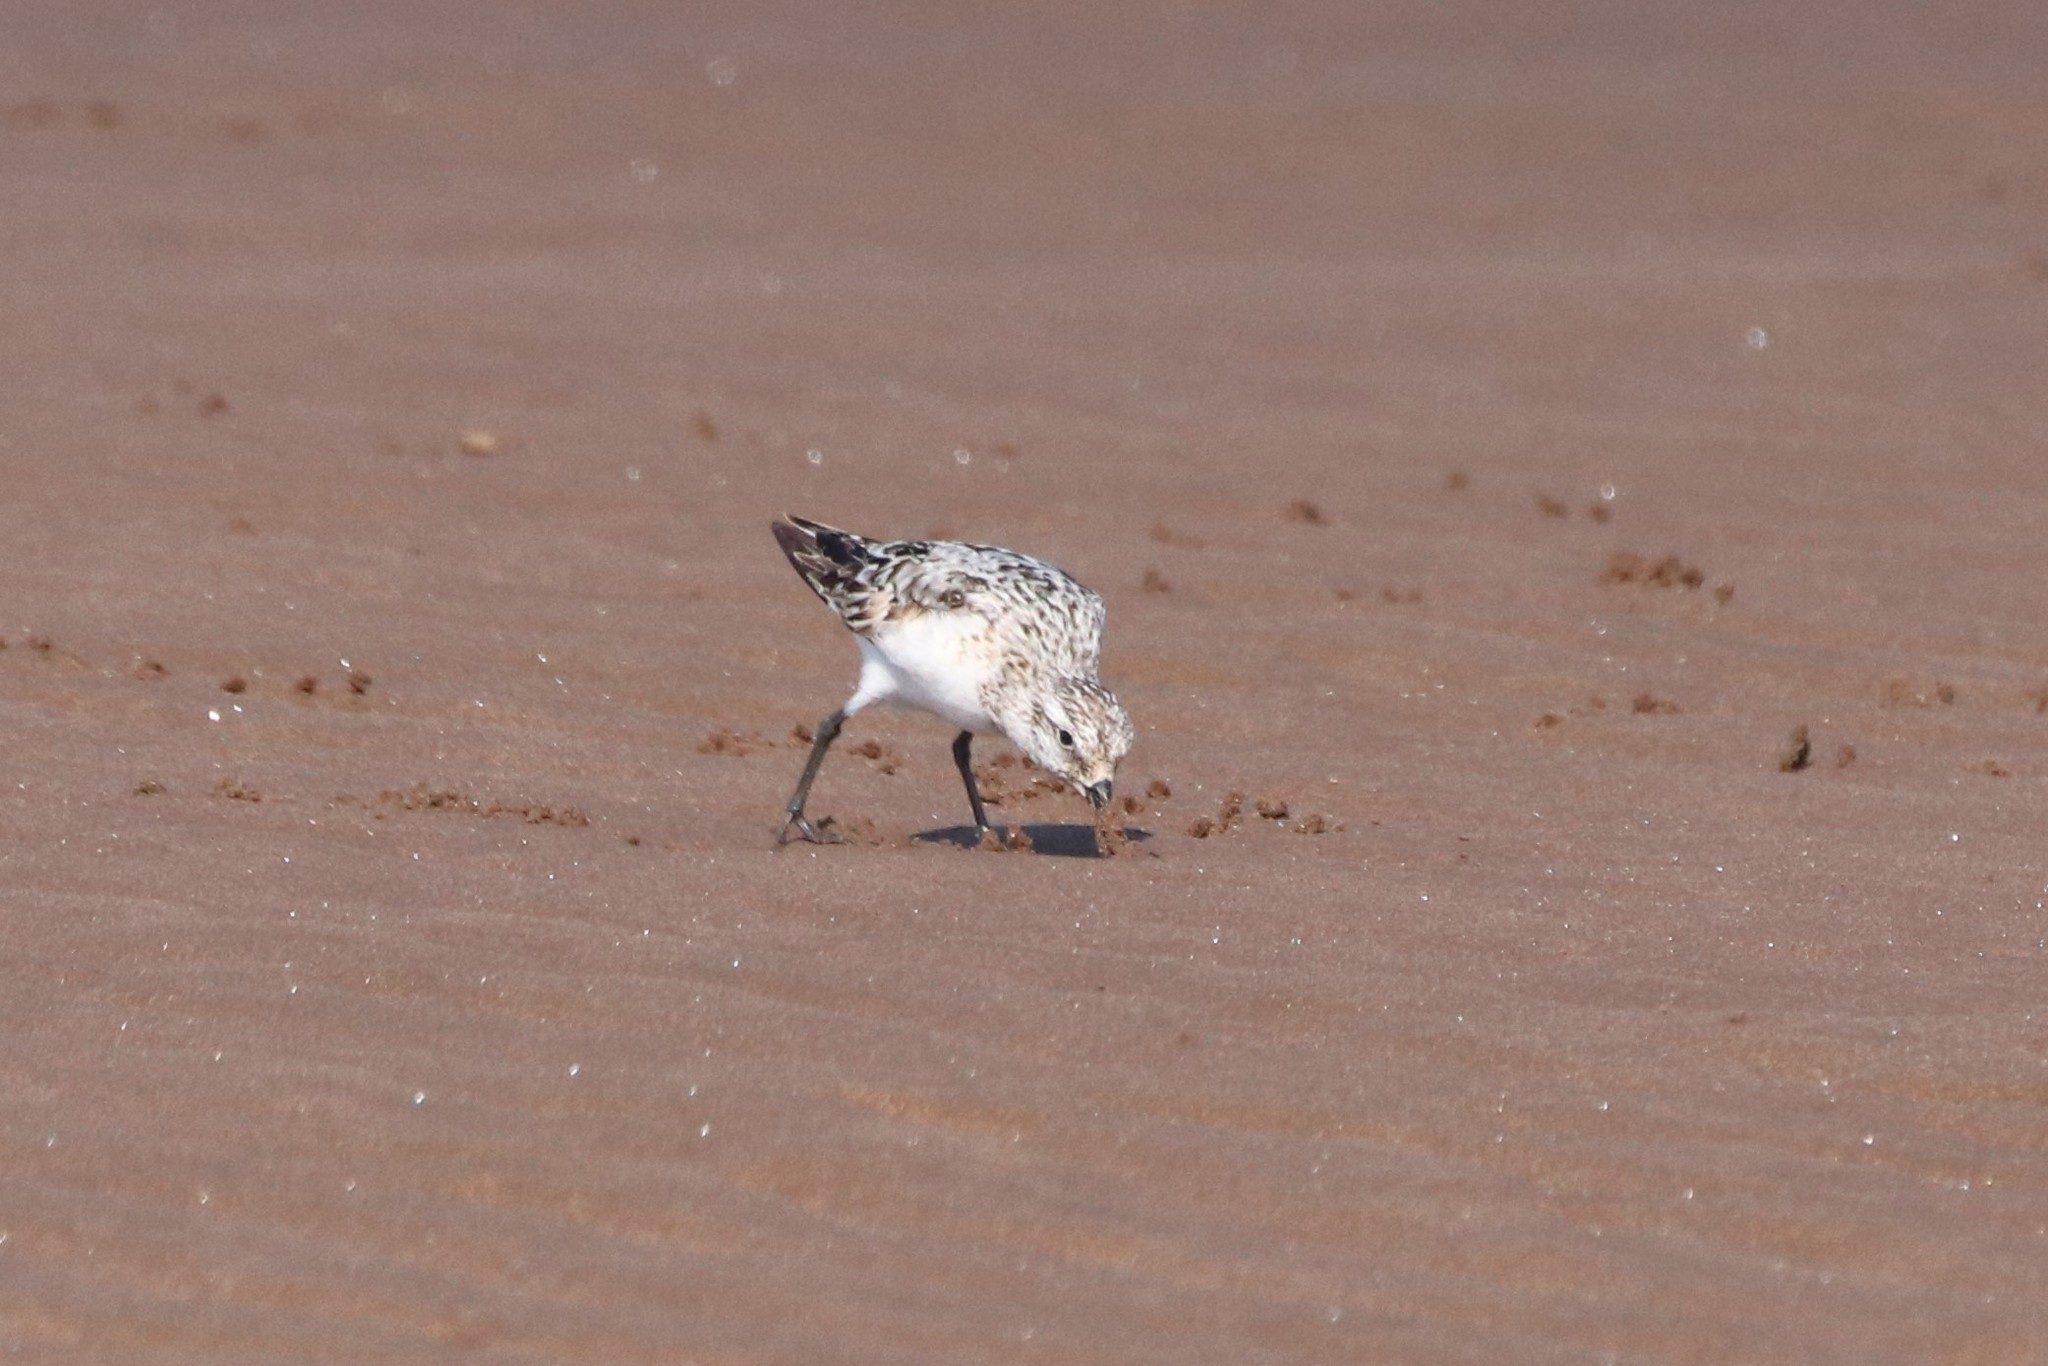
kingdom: Animalia
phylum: Chordata
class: Aves
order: Charadriiformes
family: Scolopacidae
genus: Calidris
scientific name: Calidris alba
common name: Sanderling
